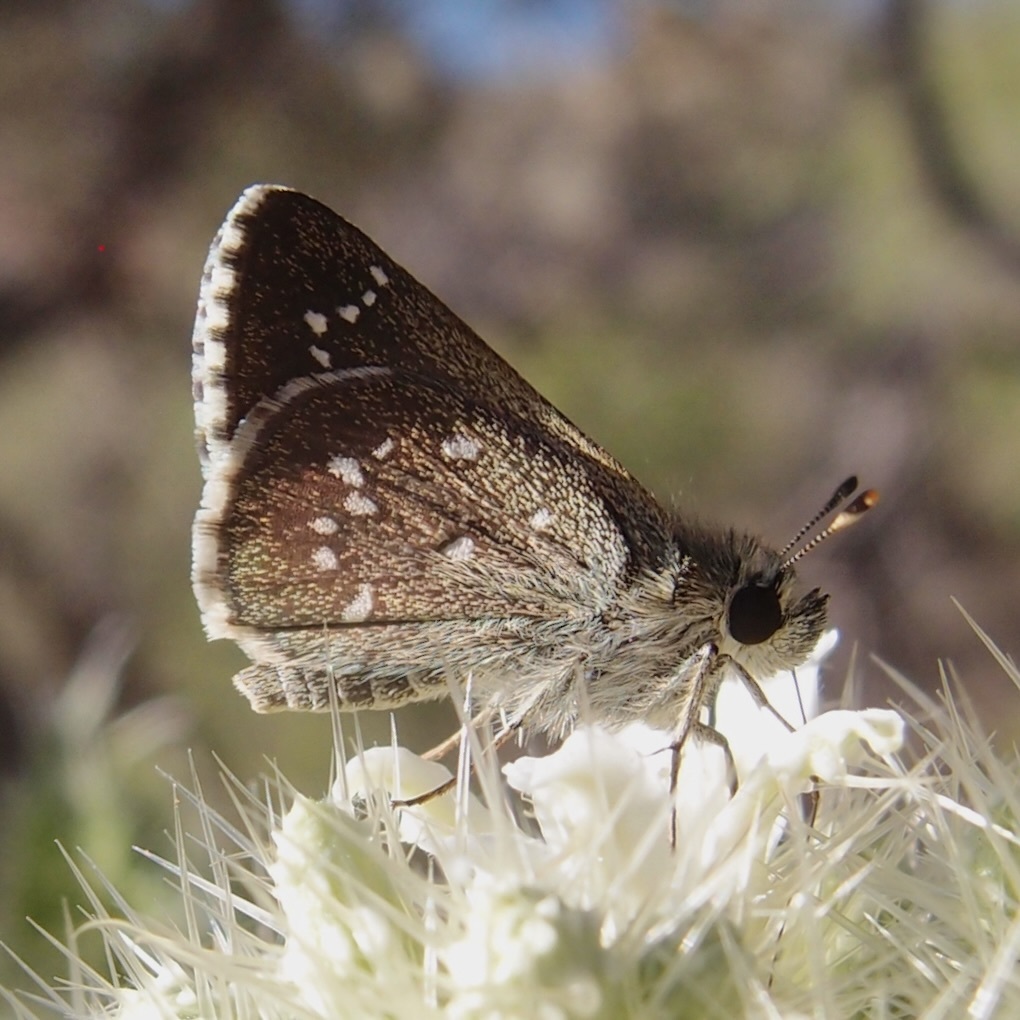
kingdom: Animalia
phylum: Arthropoda
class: Insecta
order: Lepidoptera
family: Hesperiidae
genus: Amblyscirtes
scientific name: Amblyscirtes arizonae
